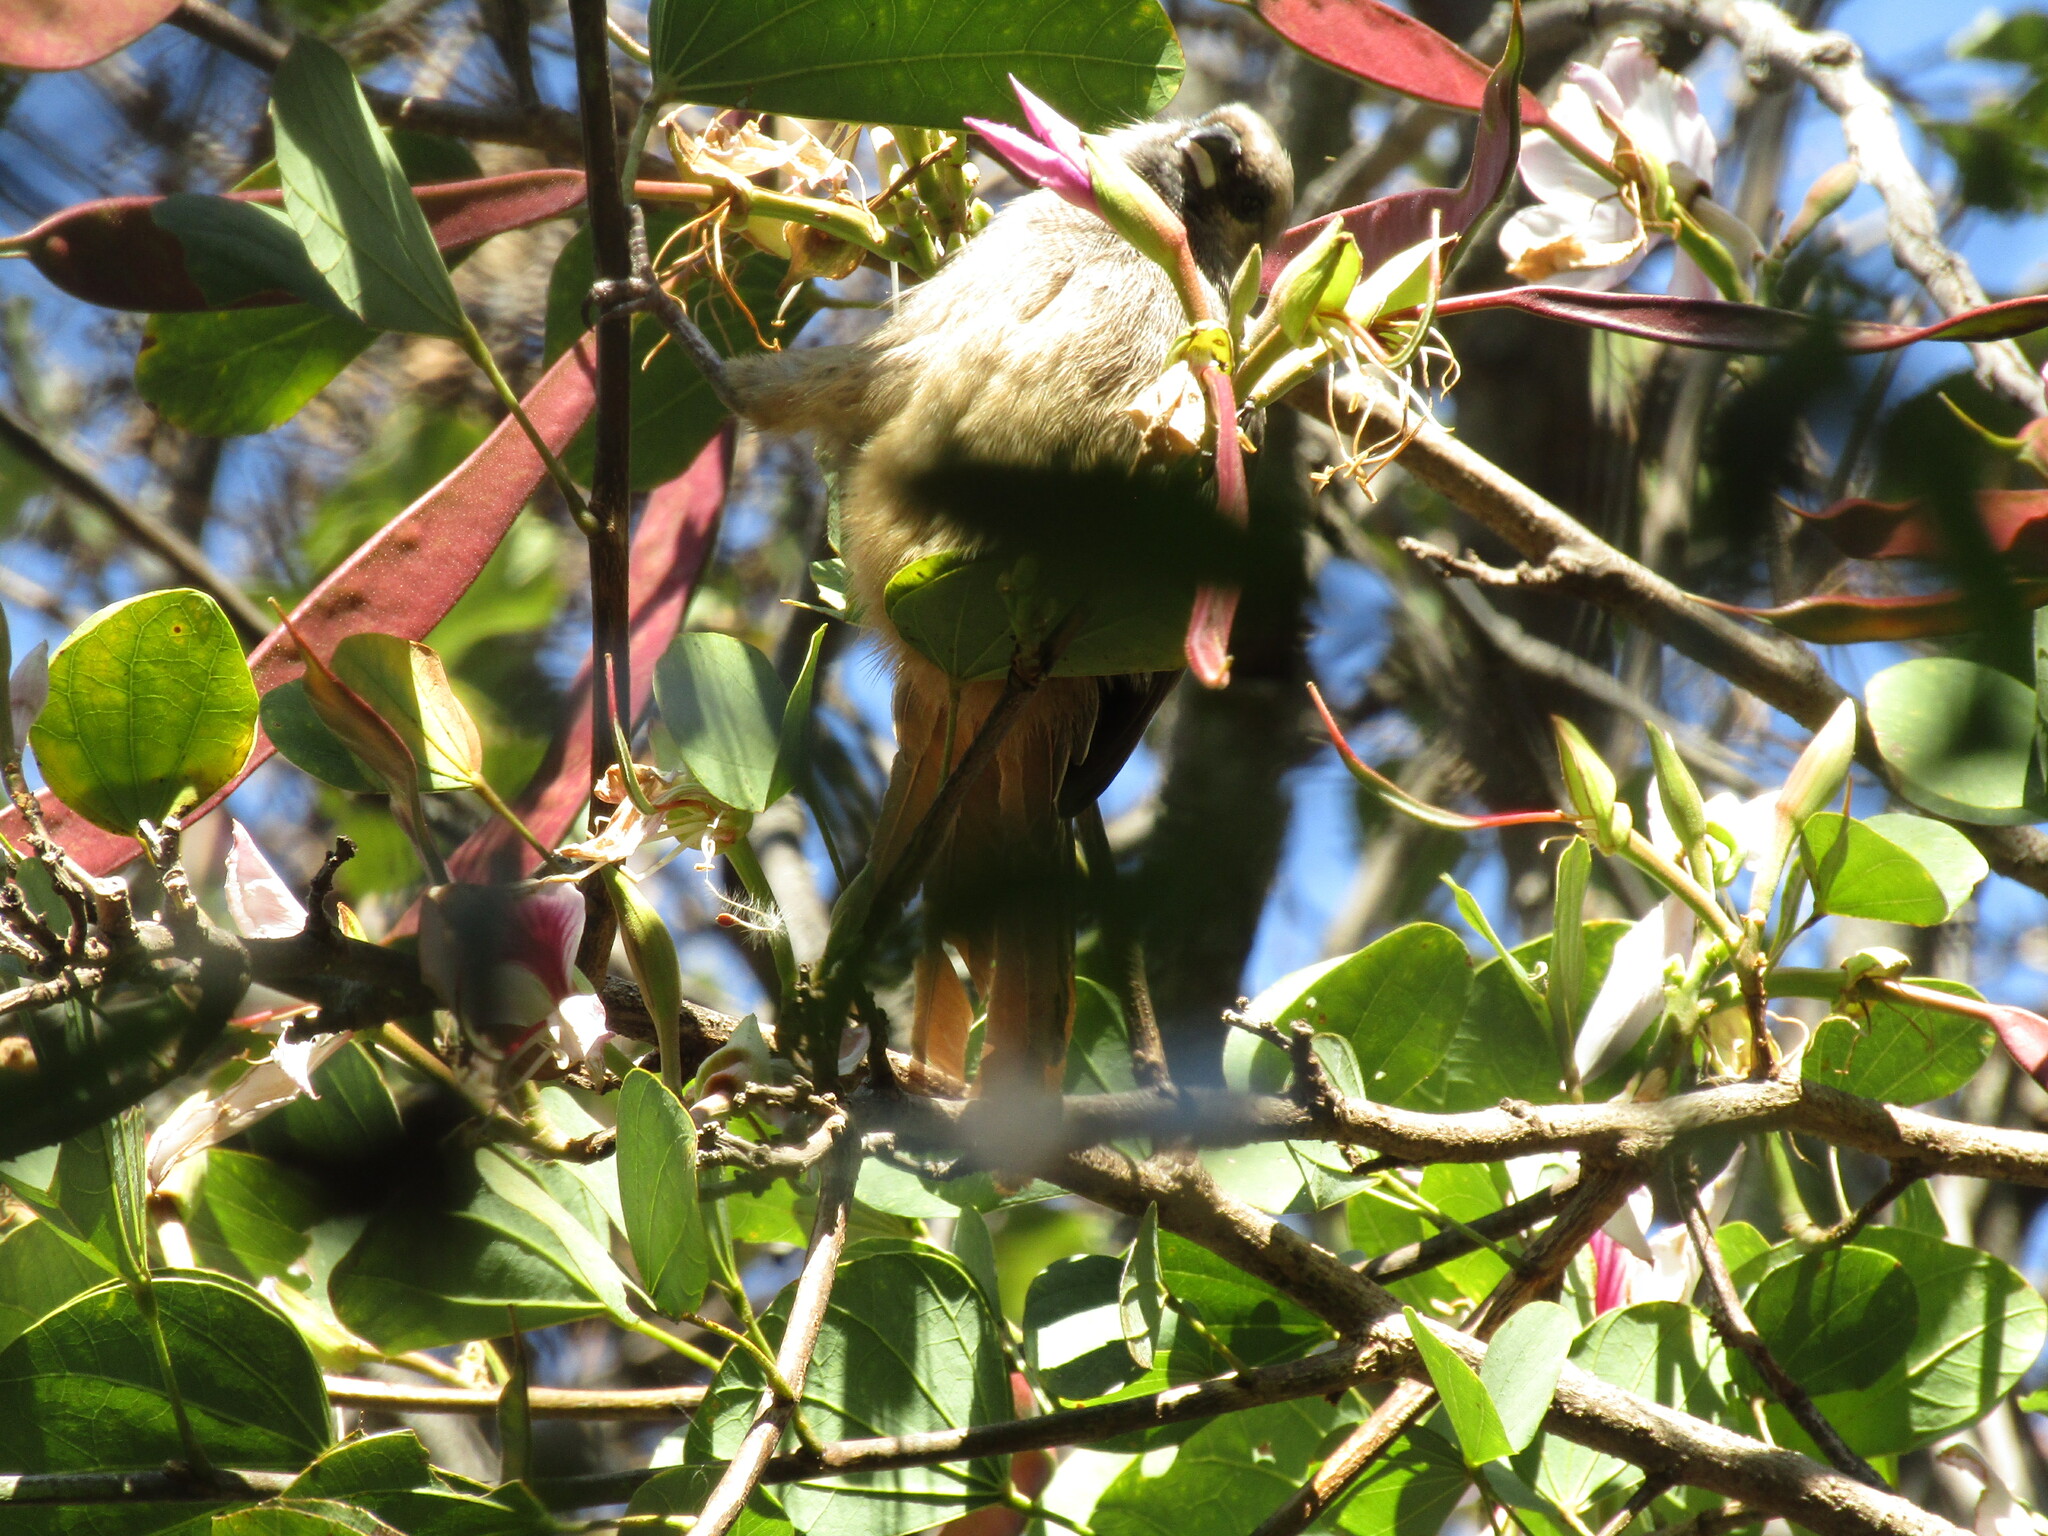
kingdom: Animalia
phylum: Chordata
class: Aves
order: Coliiformes
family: Coliidae
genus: Colius
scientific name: Colius striatus
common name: Speckled mousebird
